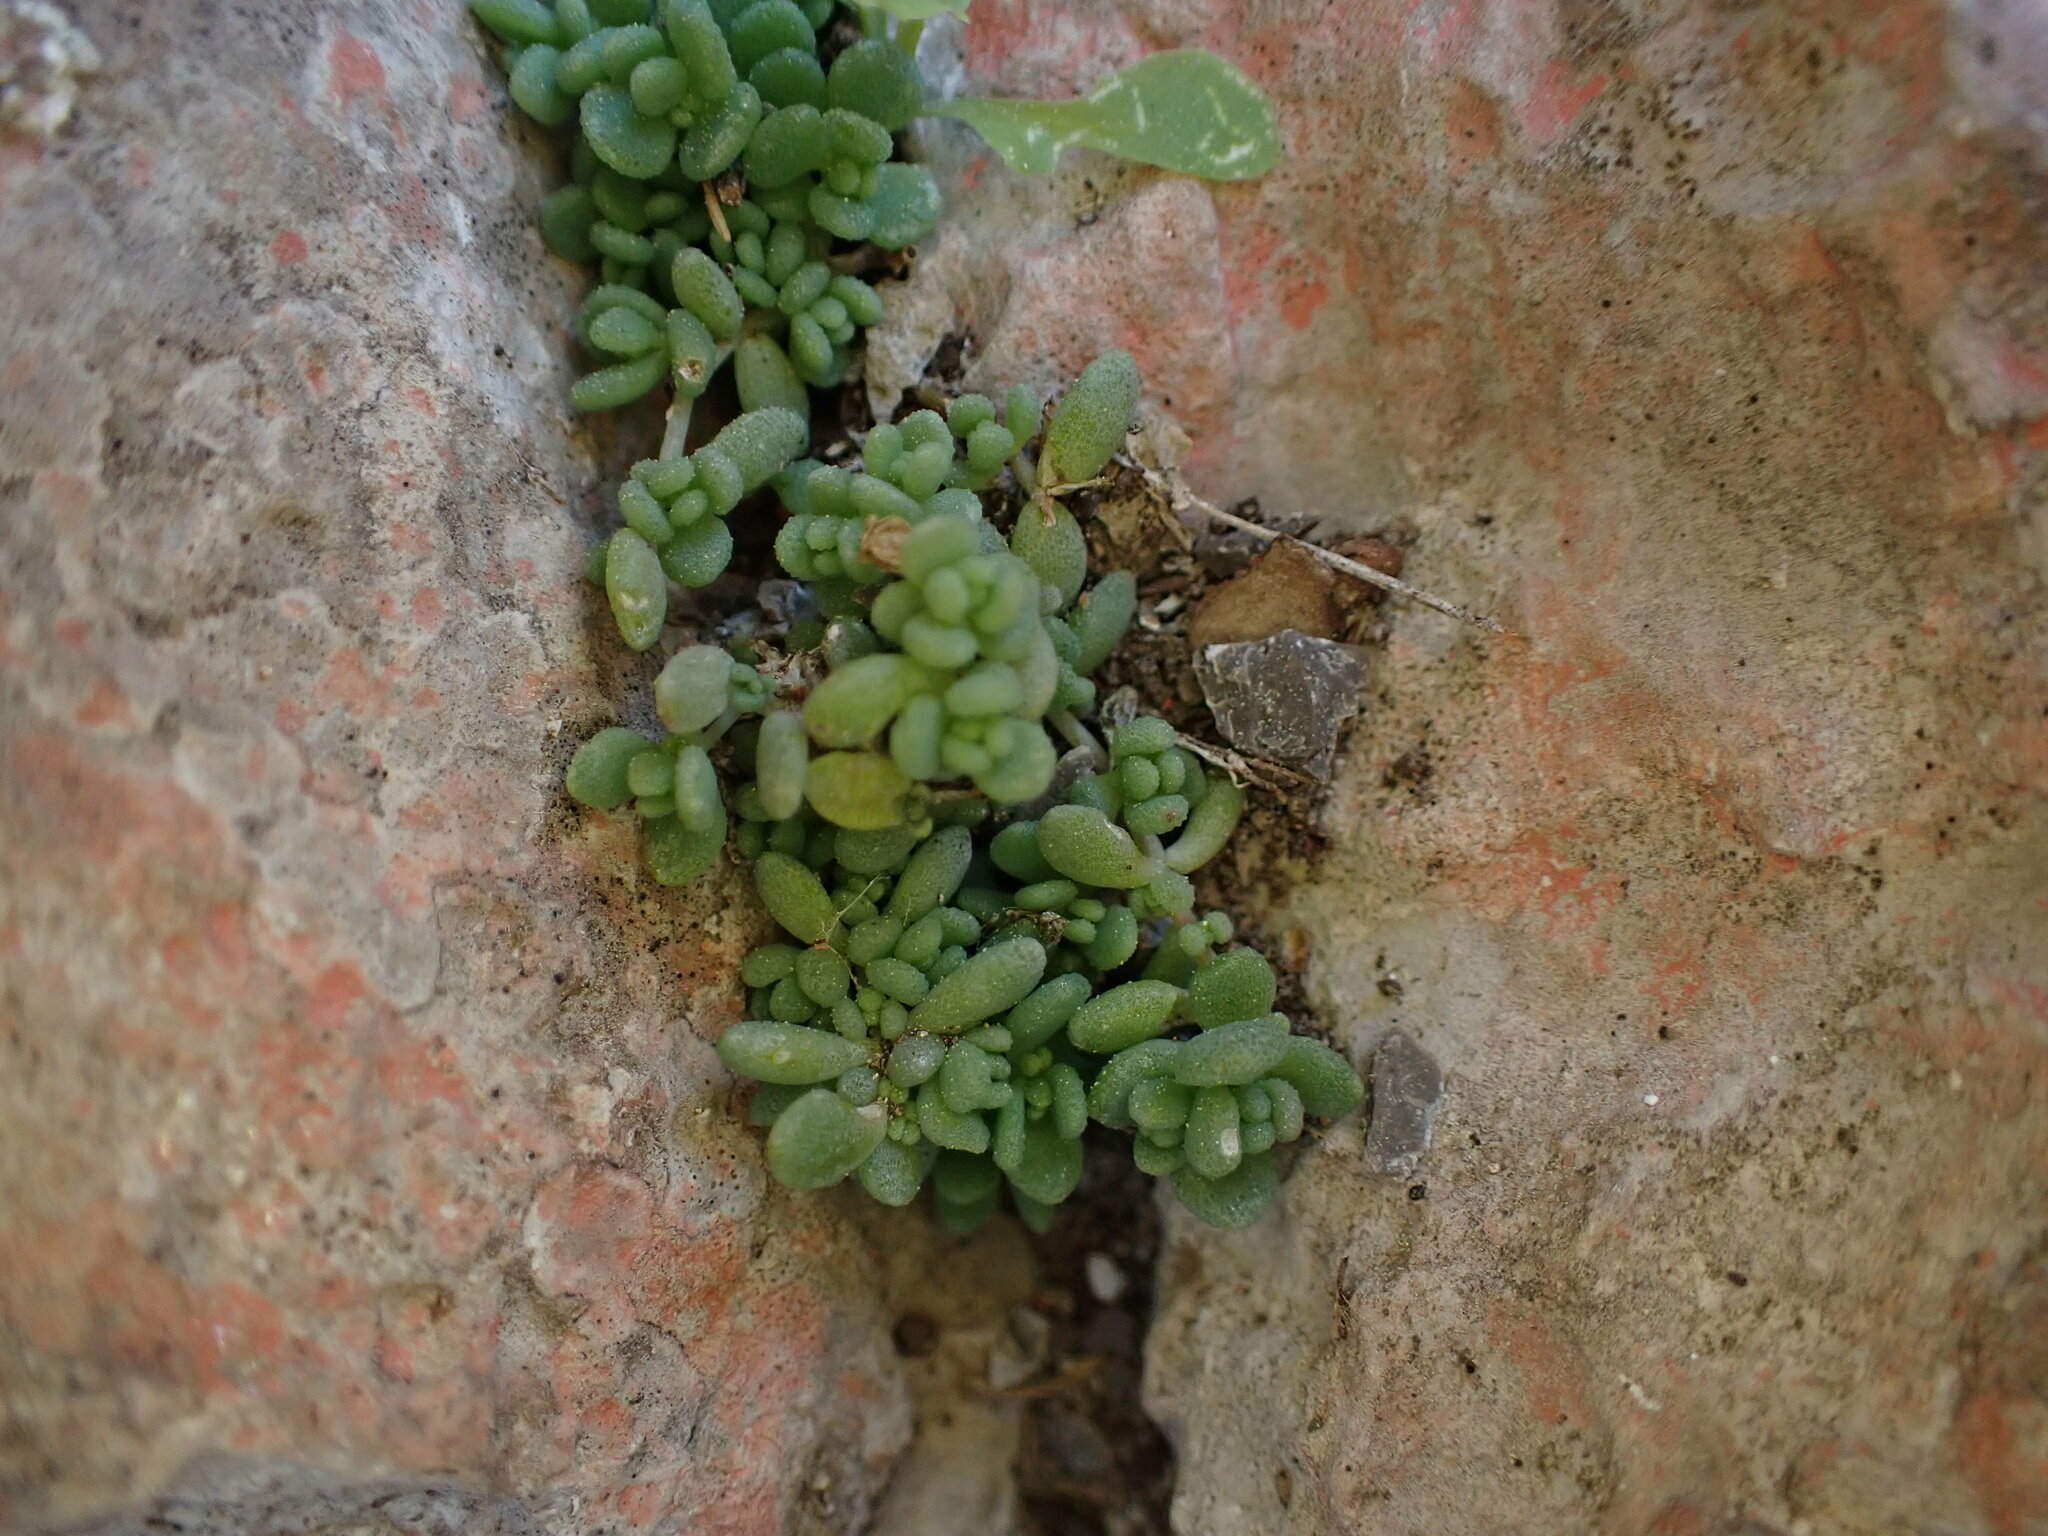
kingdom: Plantae
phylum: Tracheophyta
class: Magnoliopsida
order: Saxifragales
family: Crassulaceae
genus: Sedum
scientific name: Sedum dasyphyllum
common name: Thick-leaf stonecrop
